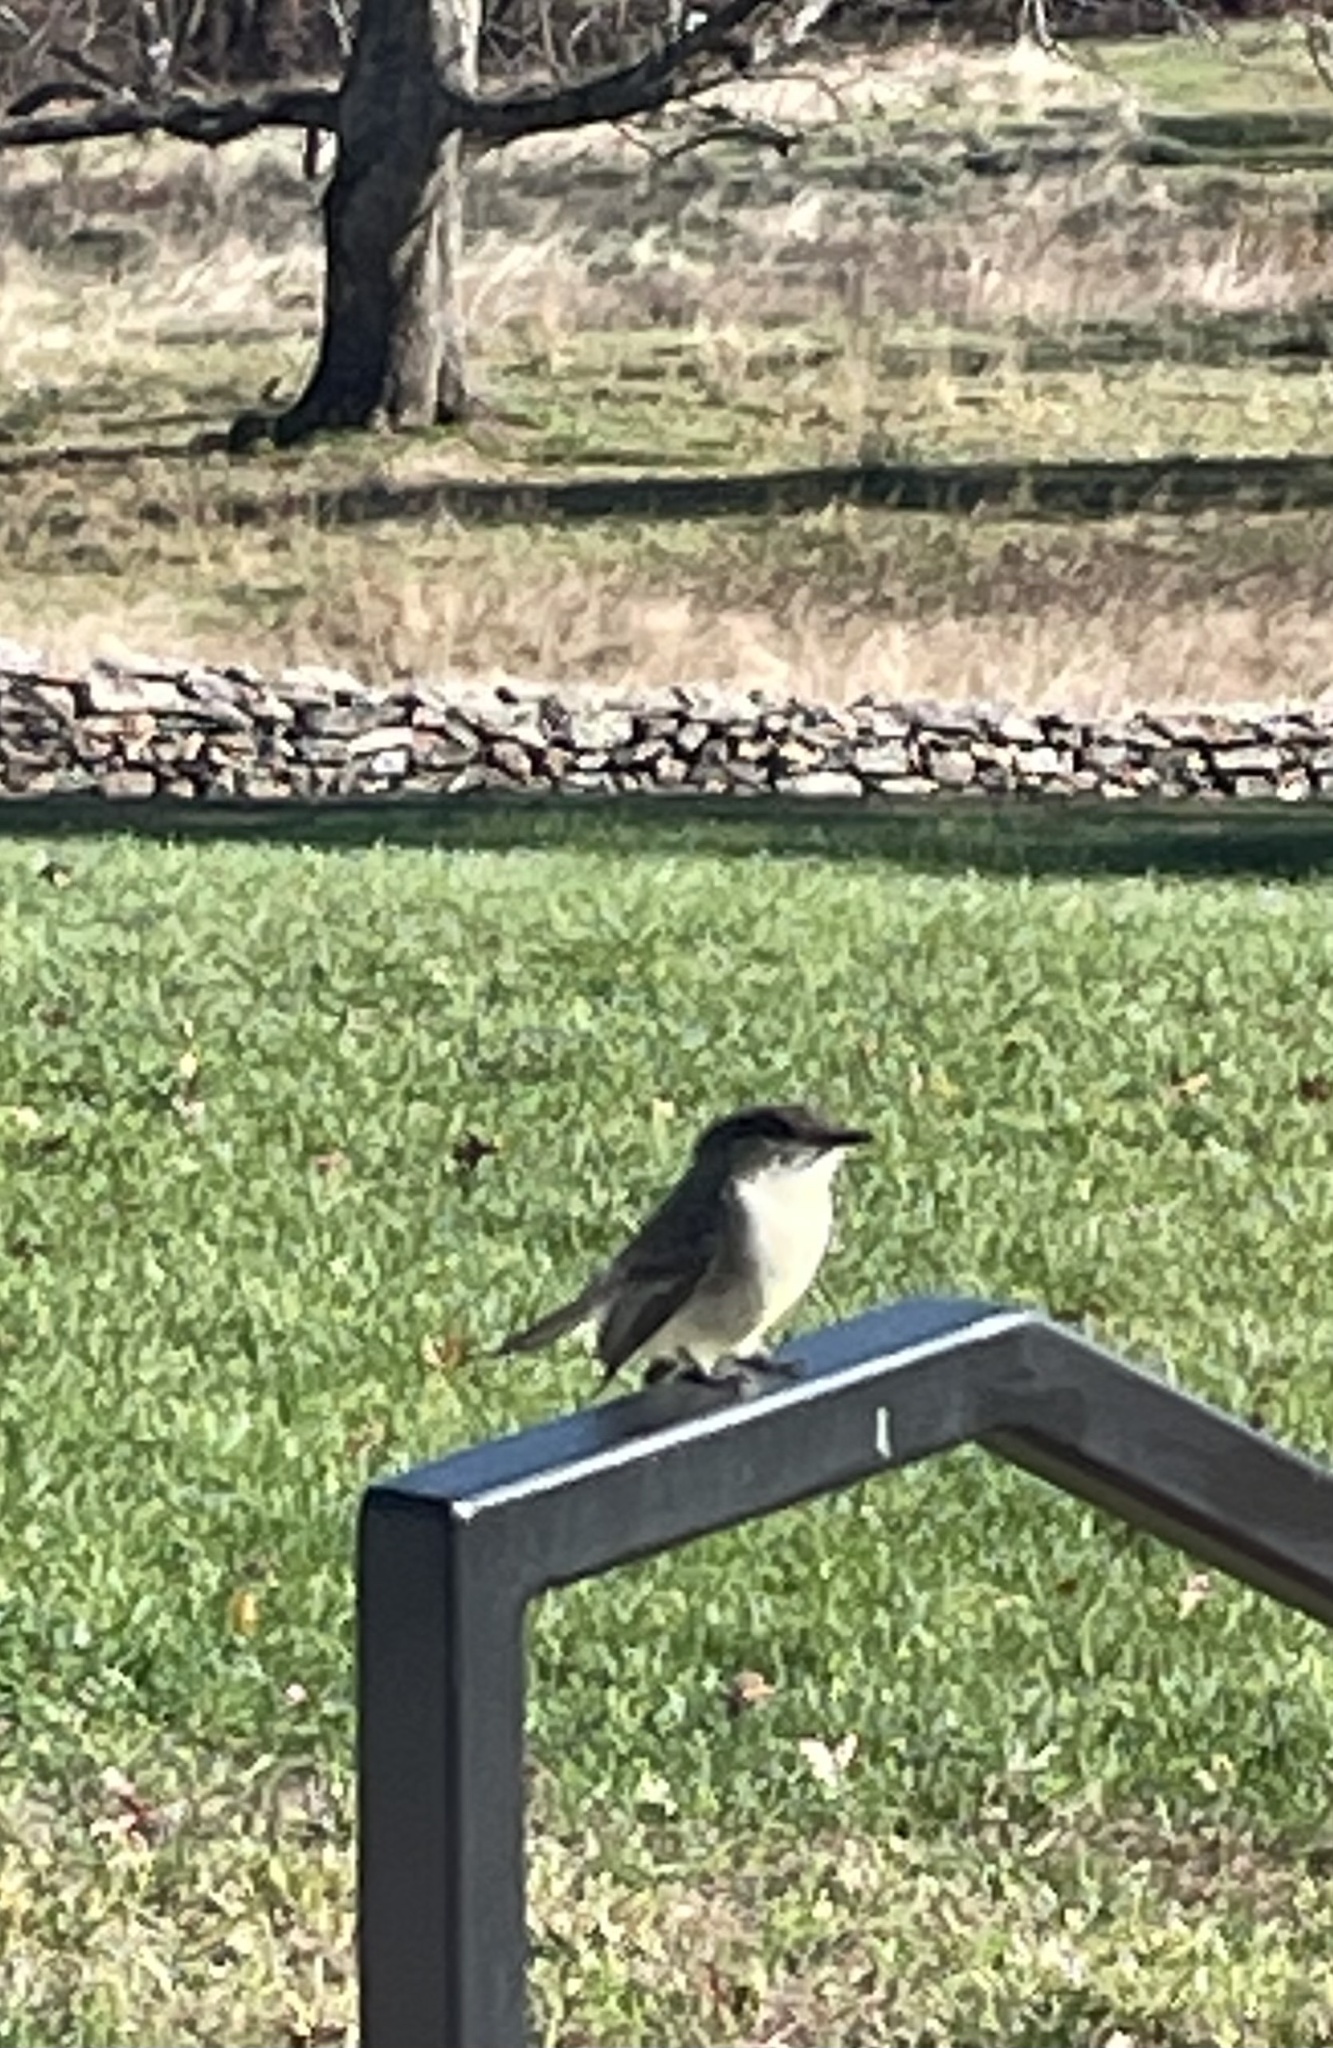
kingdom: Animalia
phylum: Chordata
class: Aves
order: Passeriformes
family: Tyrannidae
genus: Sayornis
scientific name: Sayornis phoebe
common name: Eastern phoebe
